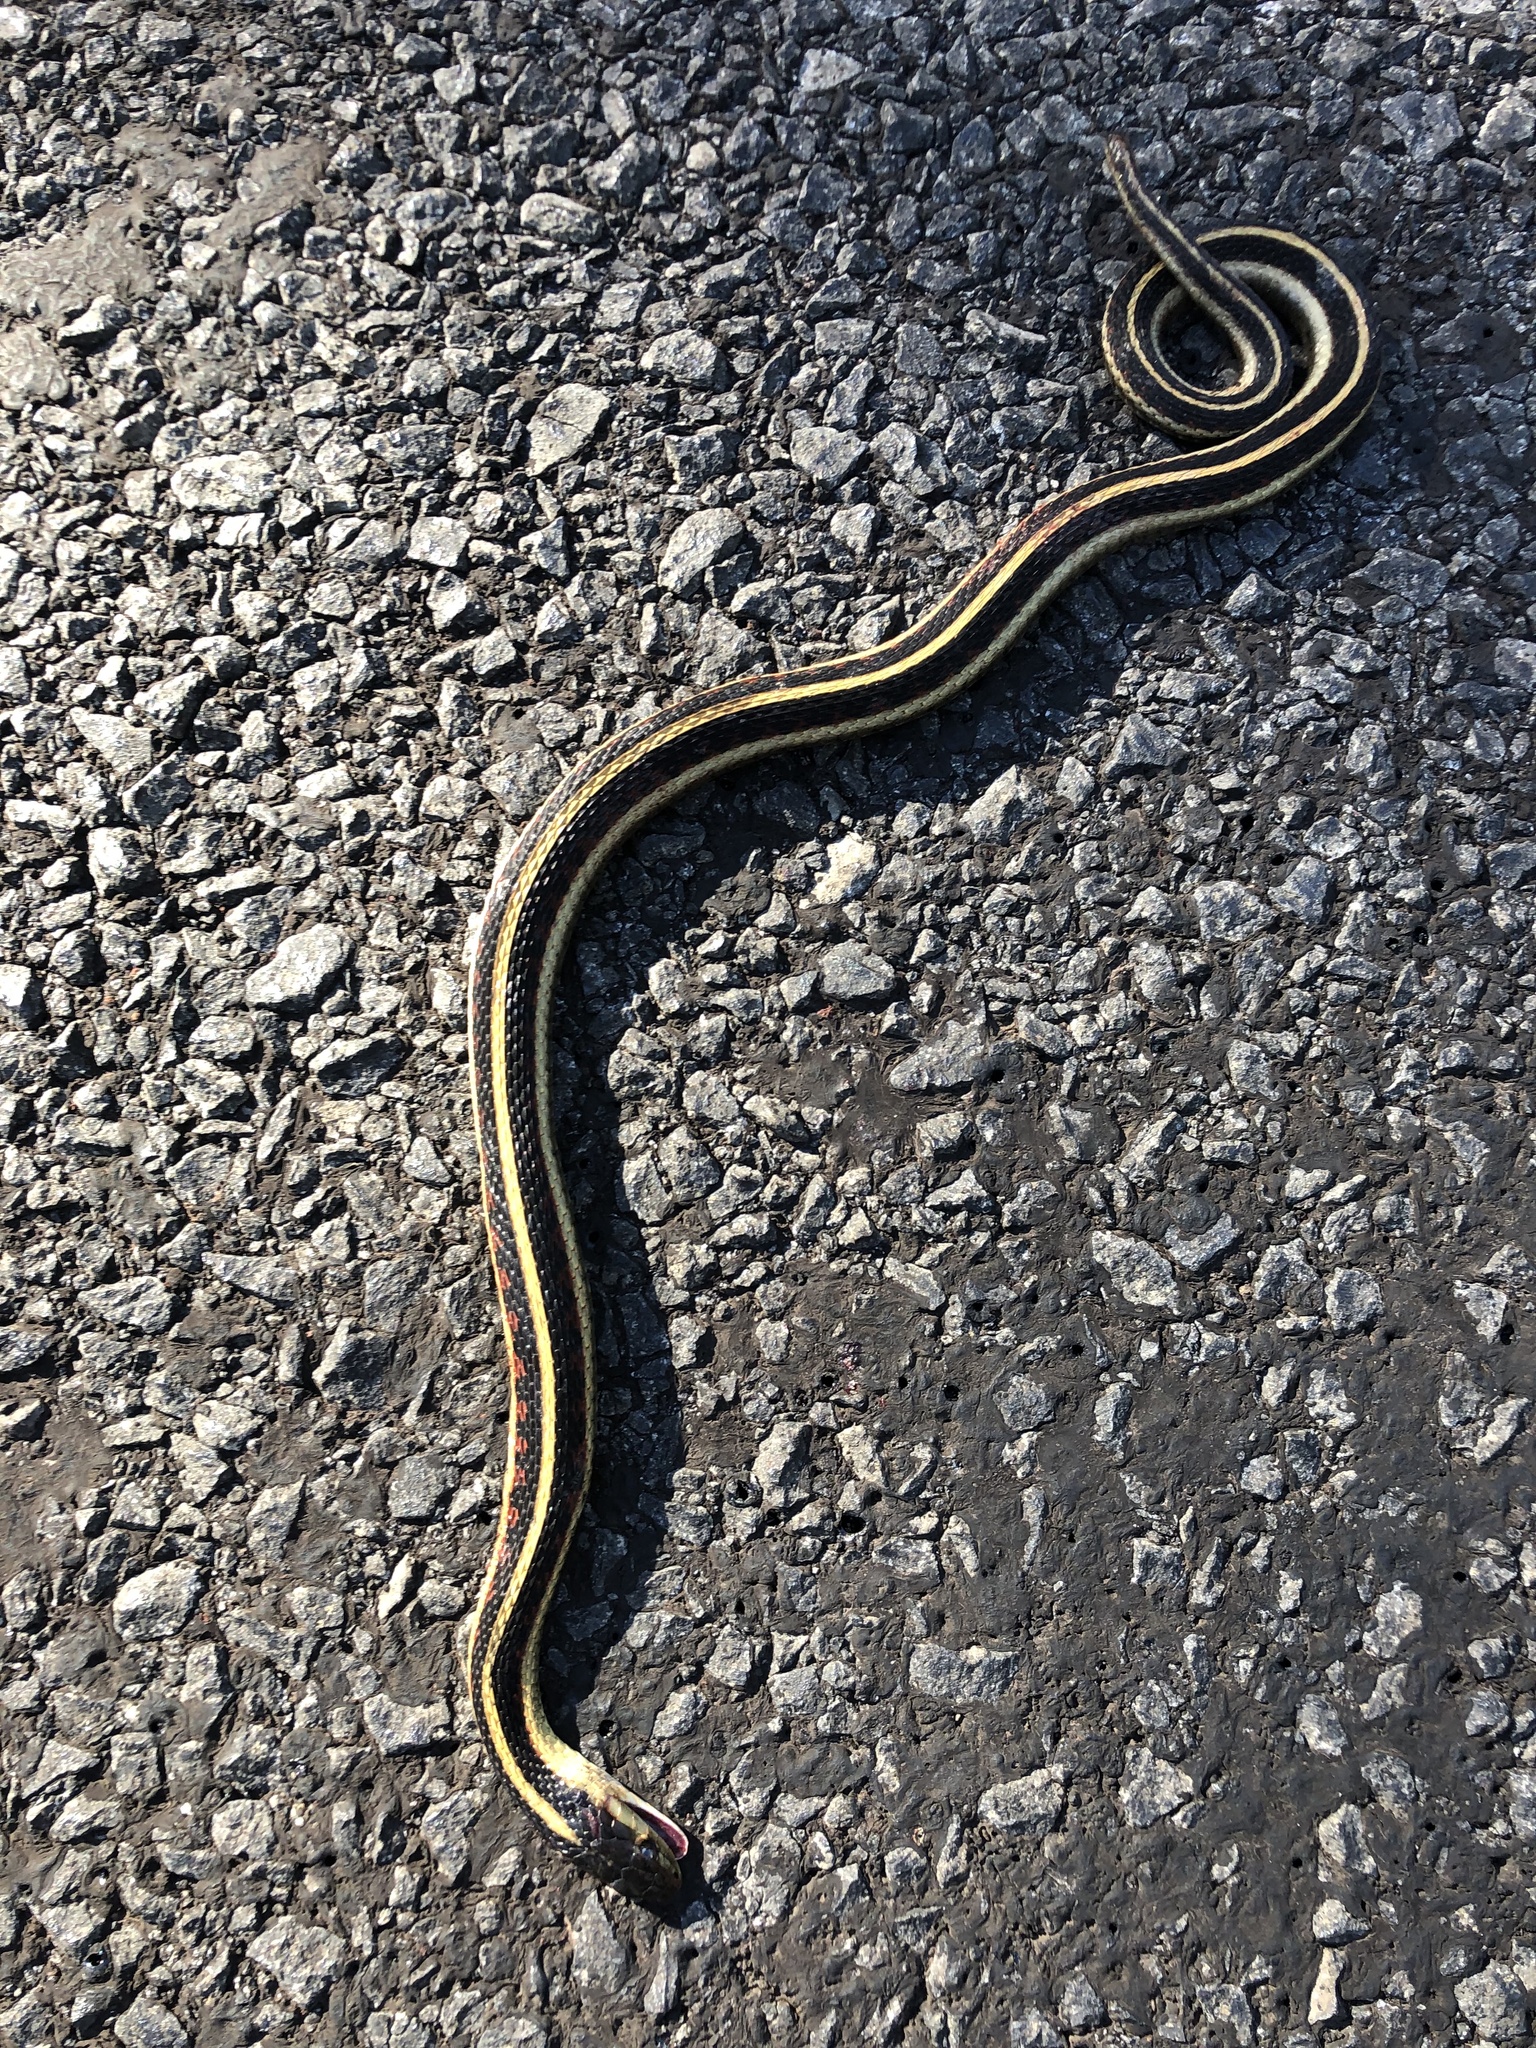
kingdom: Animalia
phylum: Chordata
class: Squamata
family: Colubridae
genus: Thamnophis
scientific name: Thamnophis sirtalis
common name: Common garter snake
